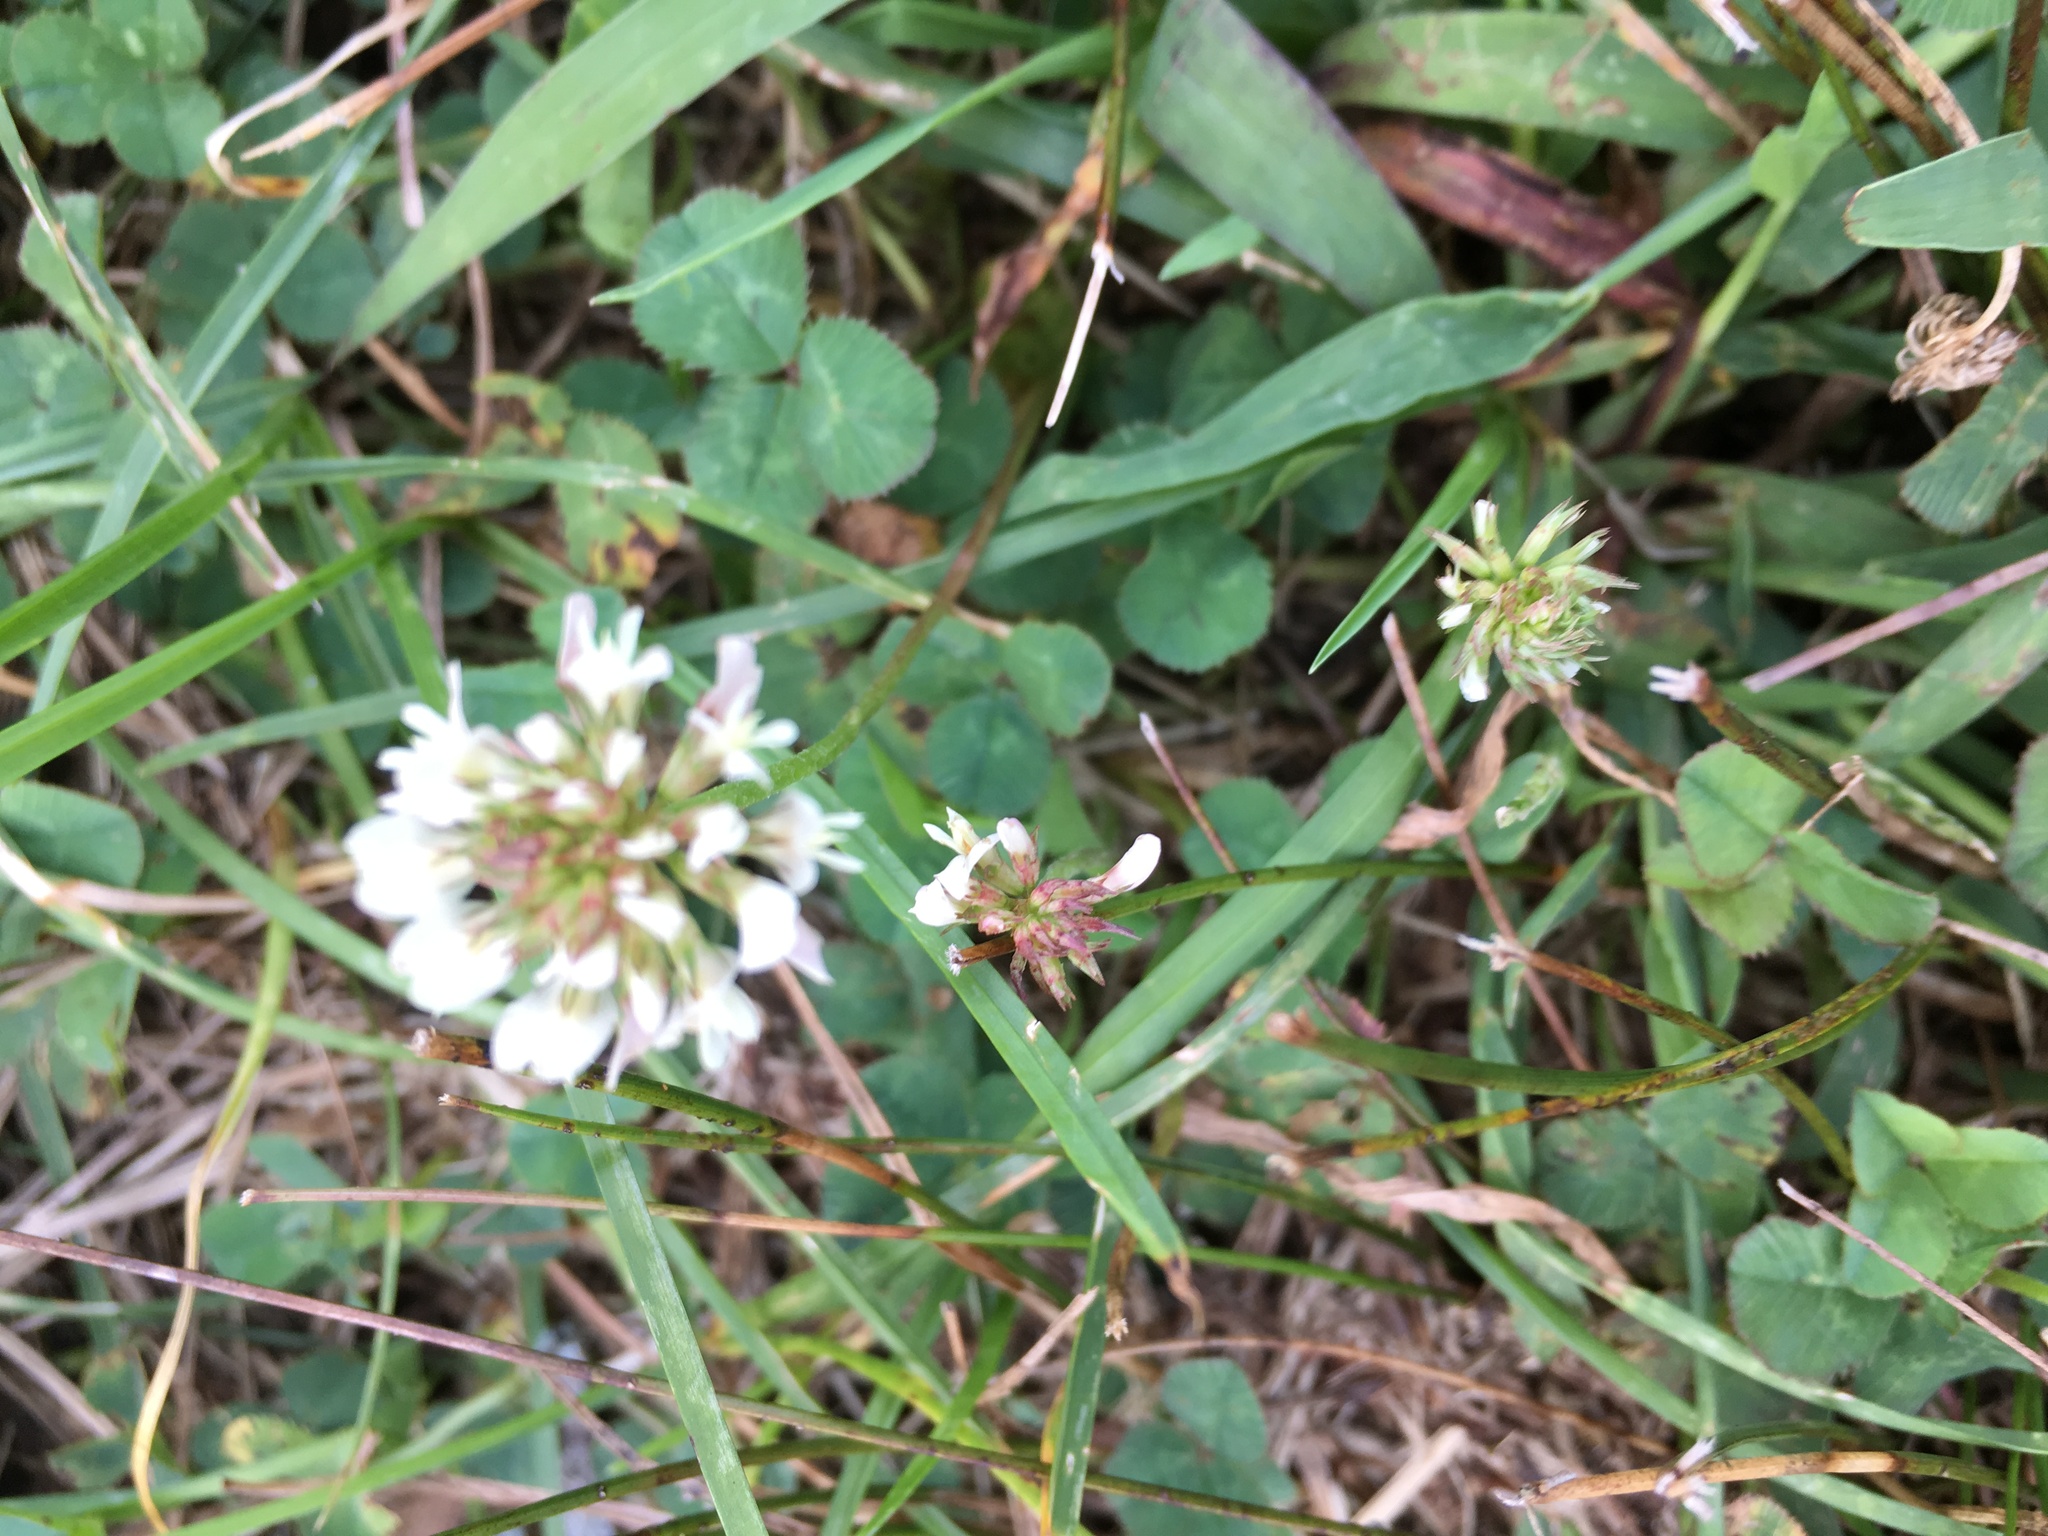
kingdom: Plantae
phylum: Tracheophyta
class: Magnoliopsida
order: Fabales
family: Fabaceae
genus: Trifolium
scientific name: Trifolium repens
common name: White clover
